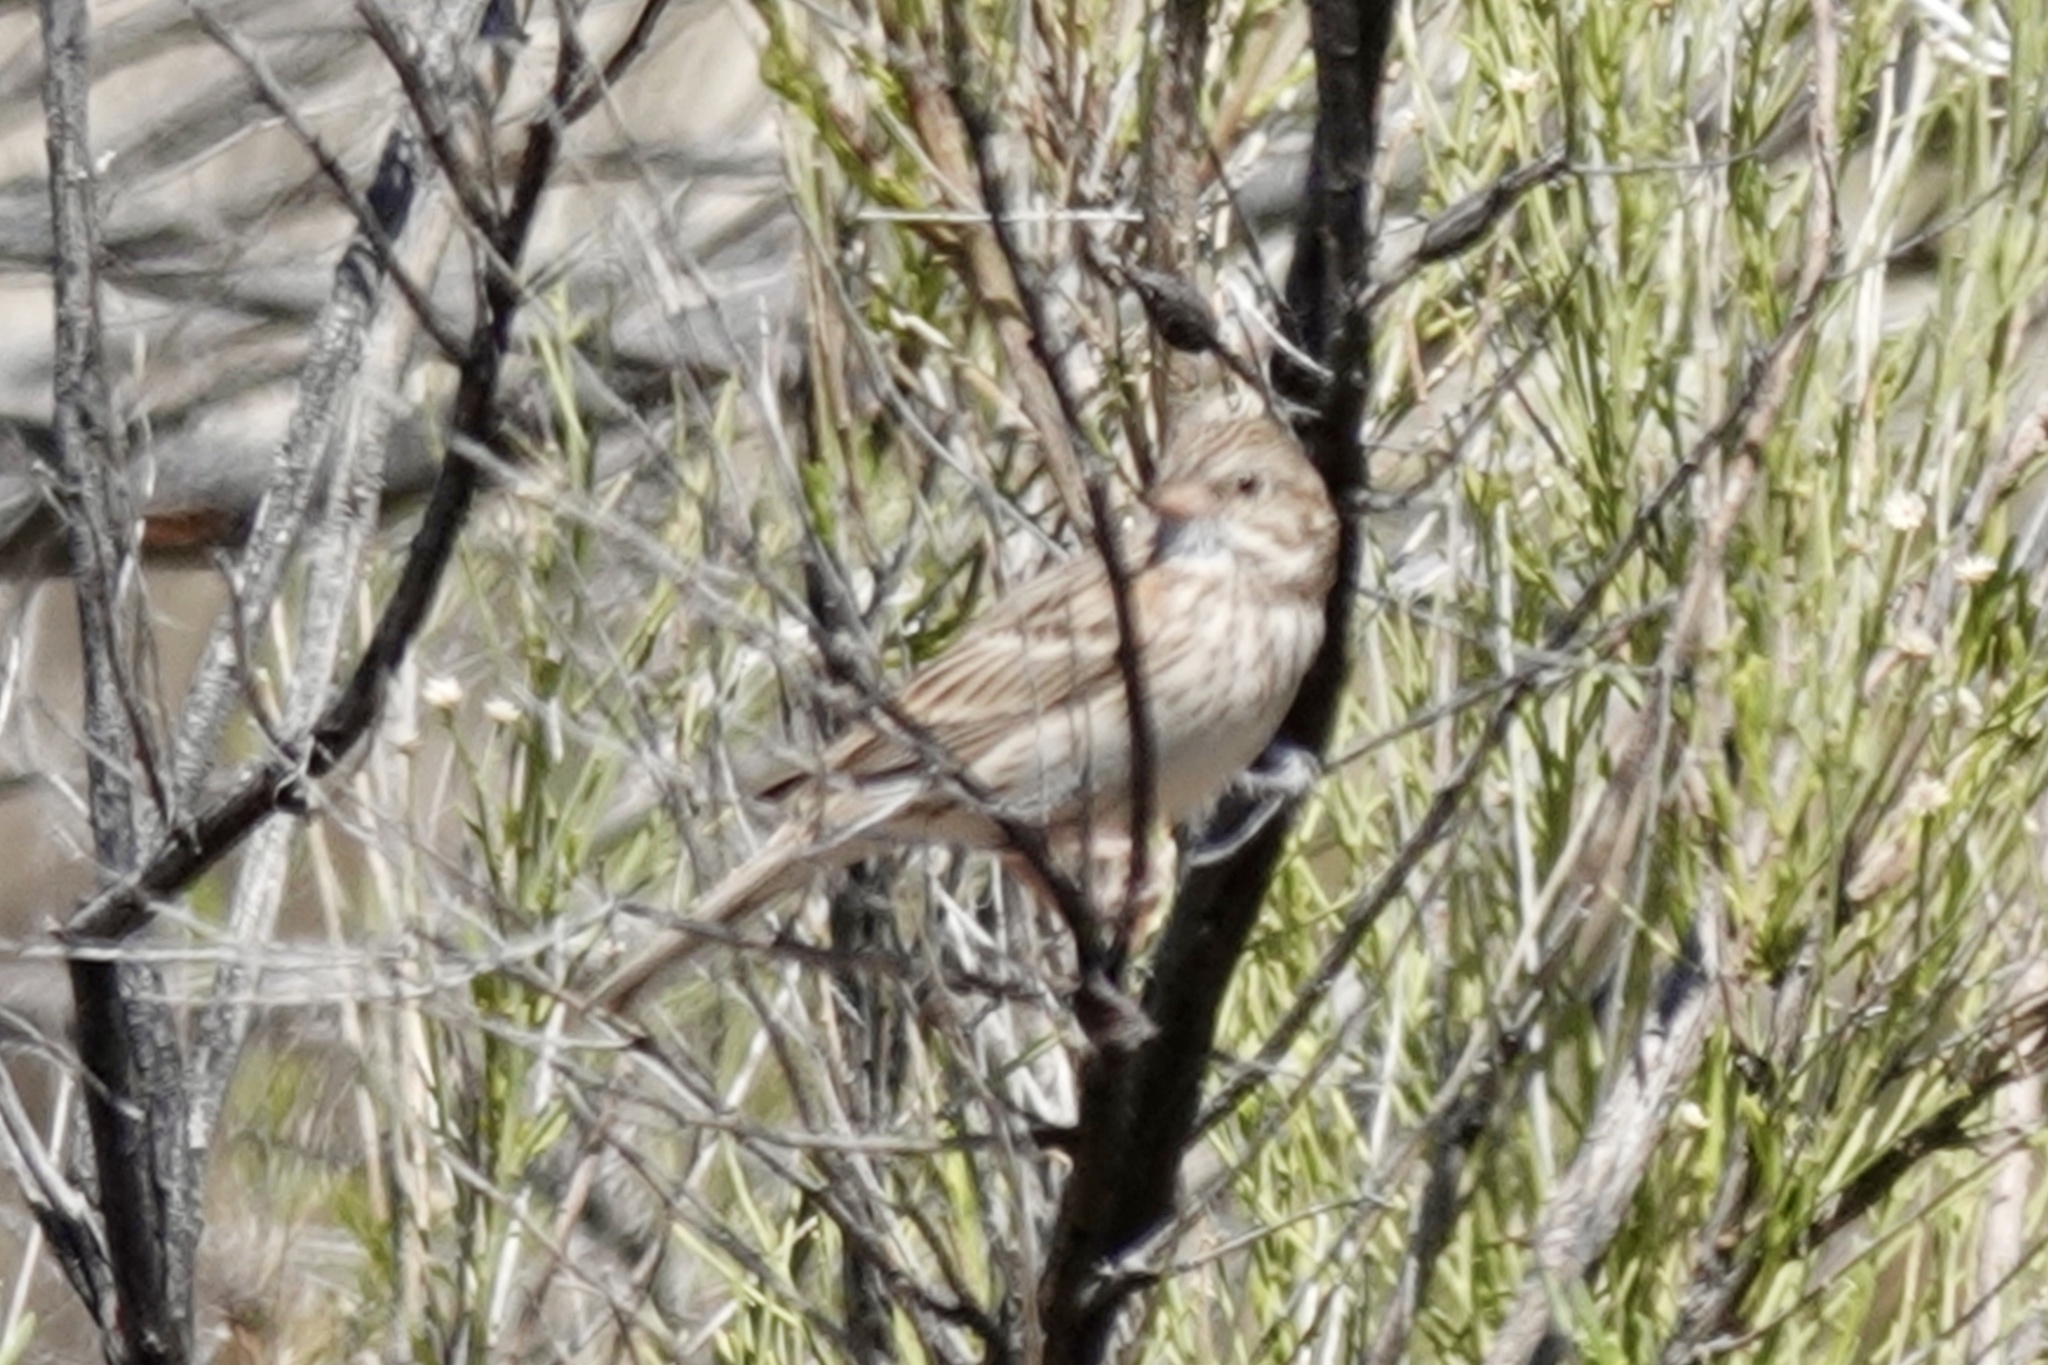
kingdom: Animalia
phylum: Chordata
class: Aves
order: Passeriformes
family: Passerellidae
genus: Pooecetes
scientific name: Pooecetes gramineus
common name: Vesper sparrow
